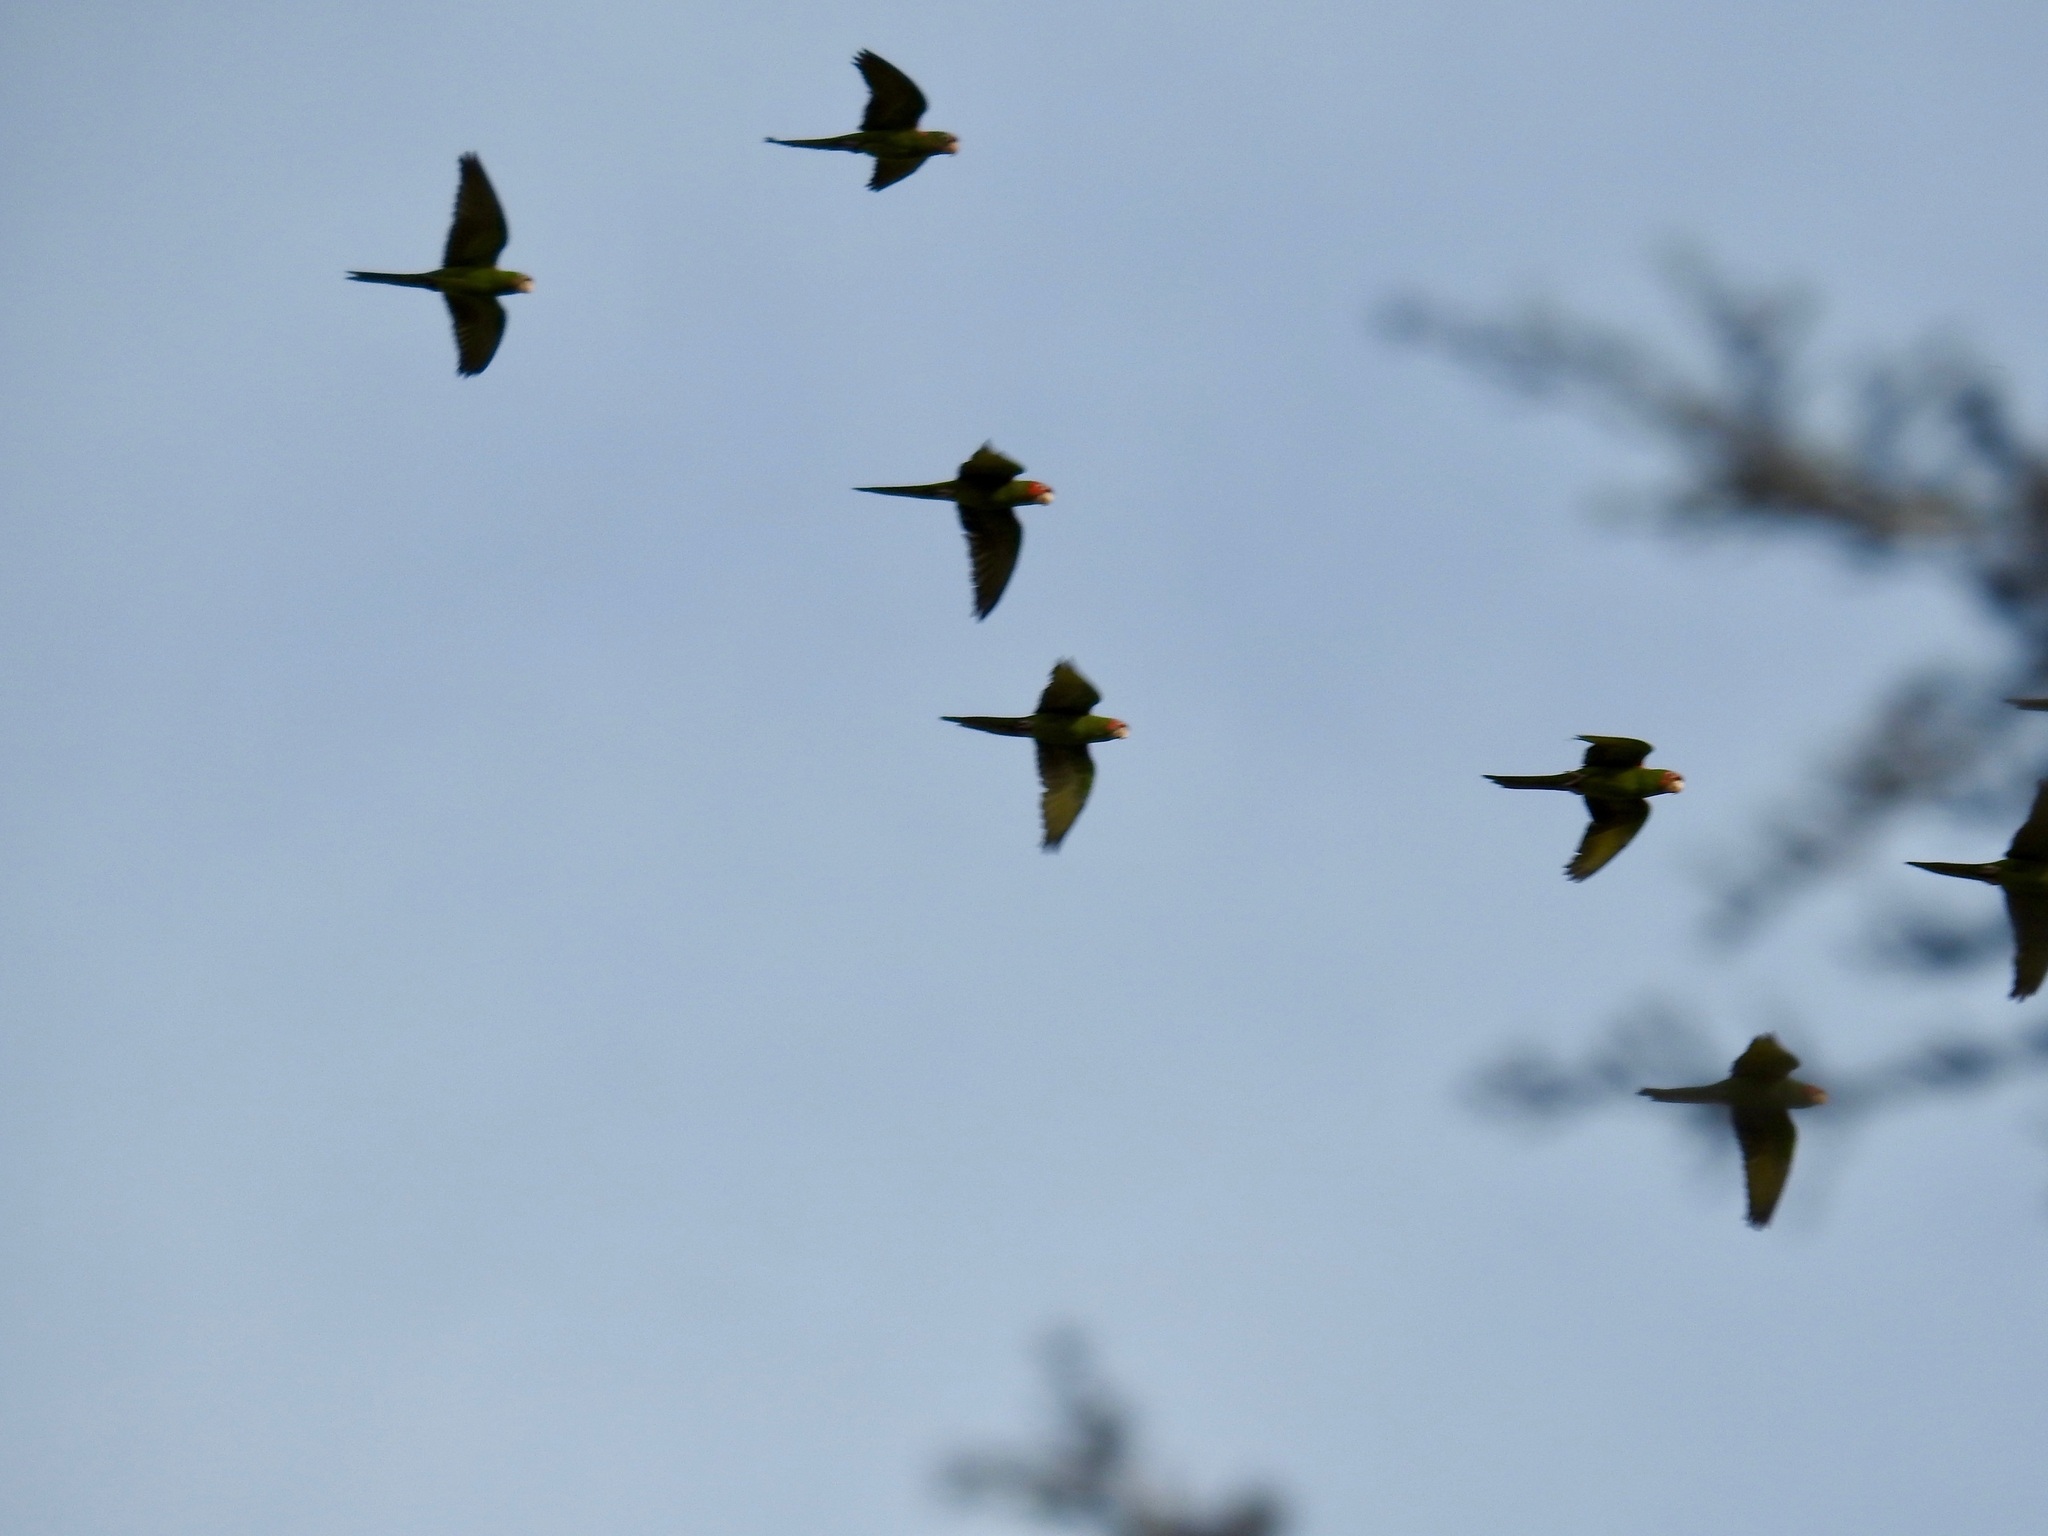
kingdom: Animalia
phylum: Chordata
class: Aves
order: Psittaciformes
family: Psittacidae
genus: Aratinga
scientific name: Aratinga mitrata
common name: Mitred parakeet
